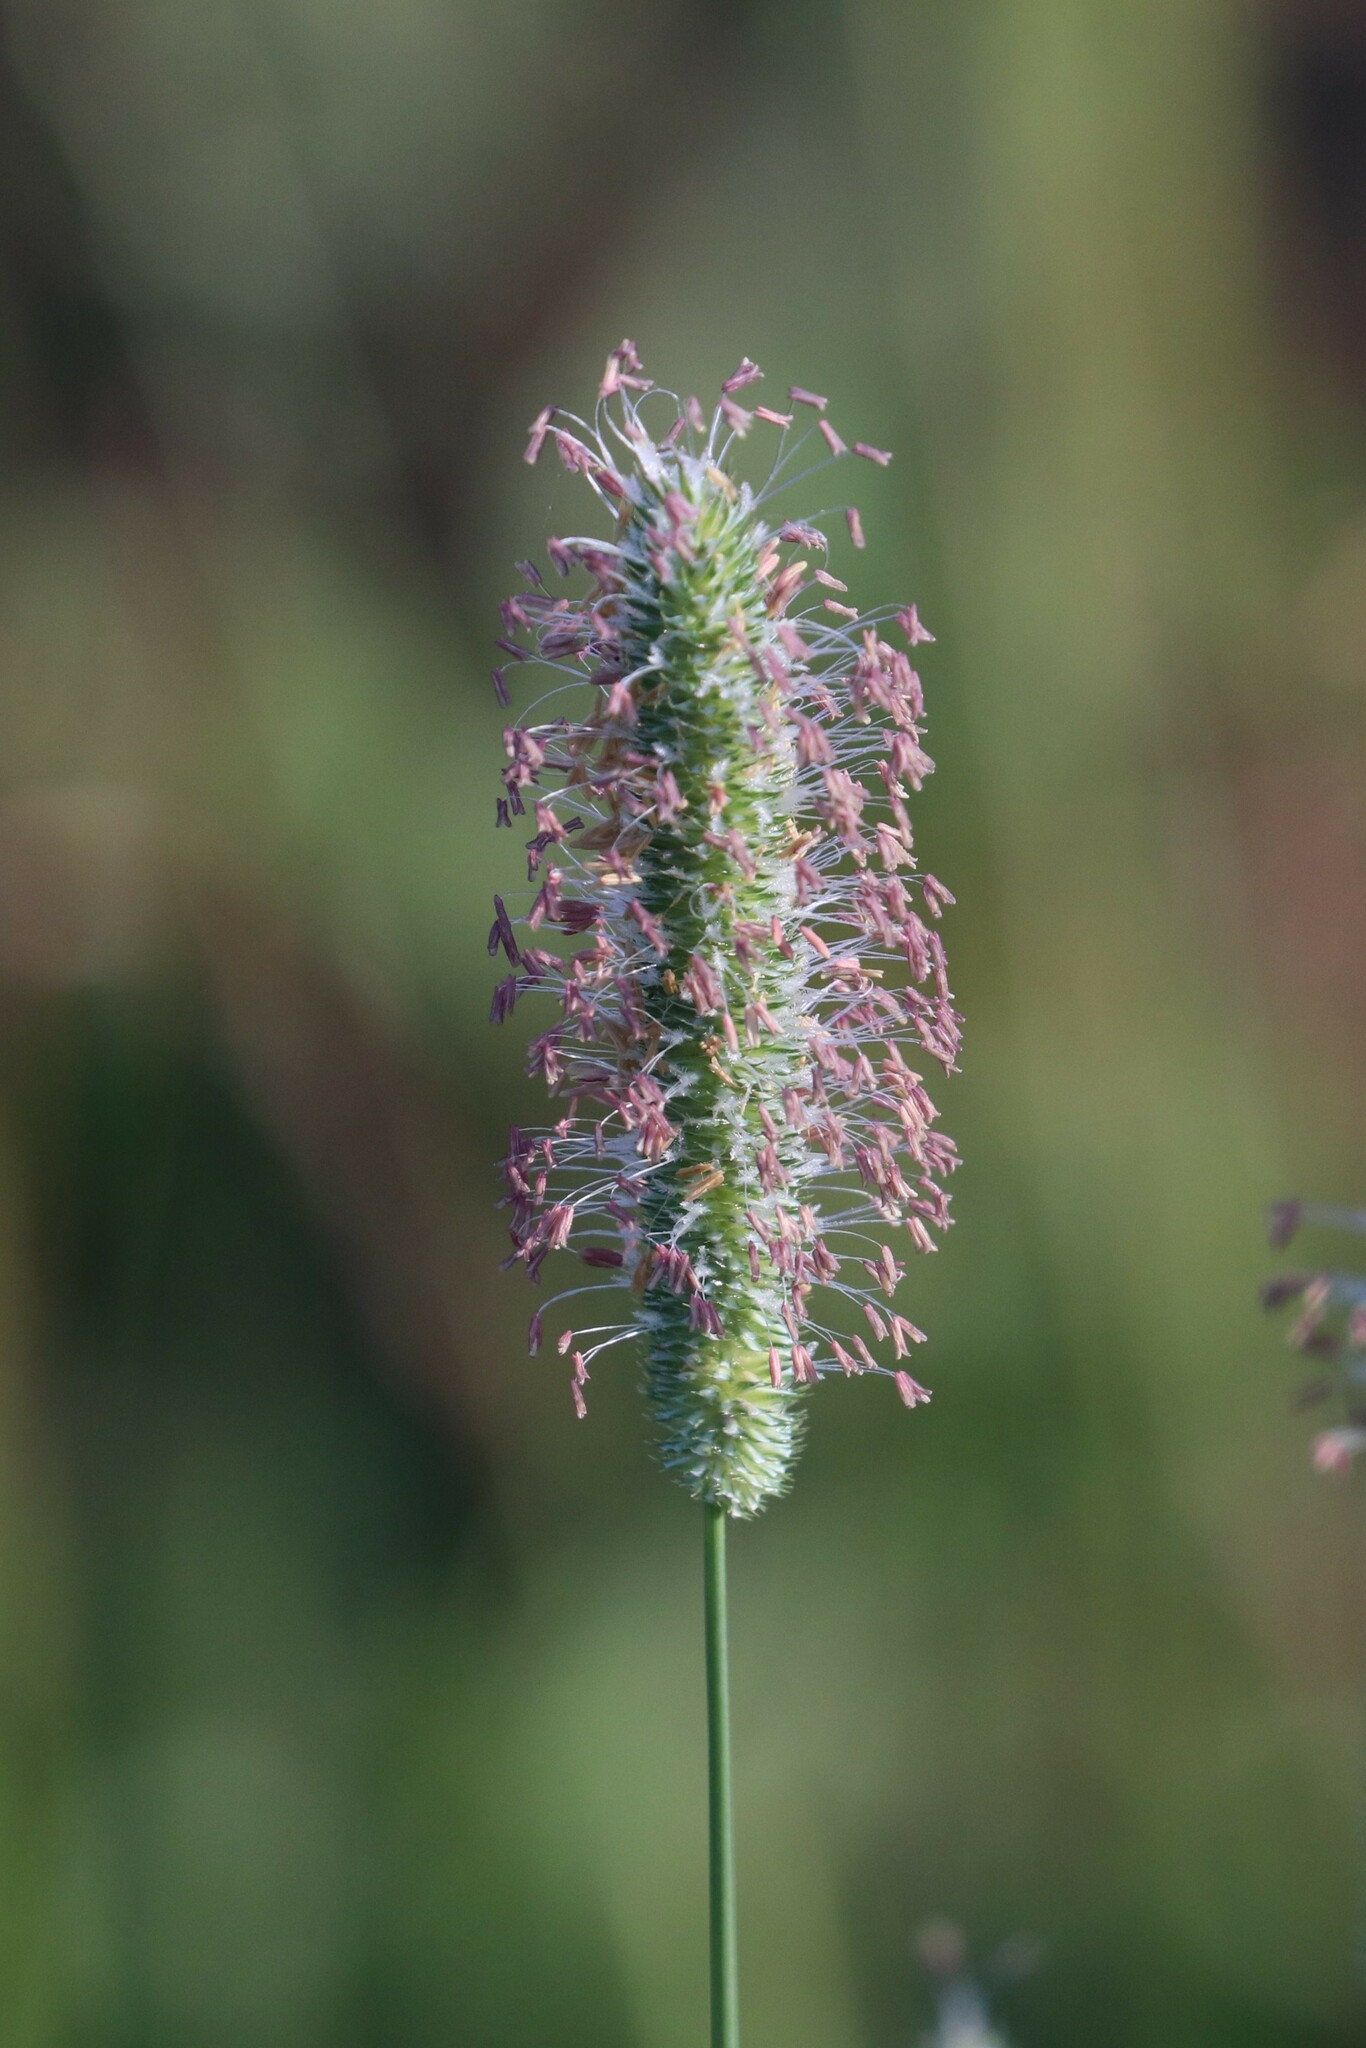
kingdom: Plantae
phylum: Tracheophyta
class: Liliopsida
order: Poales
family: Poaceae
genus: Phleum
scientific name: Phleum pratense
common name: Timothy grass
